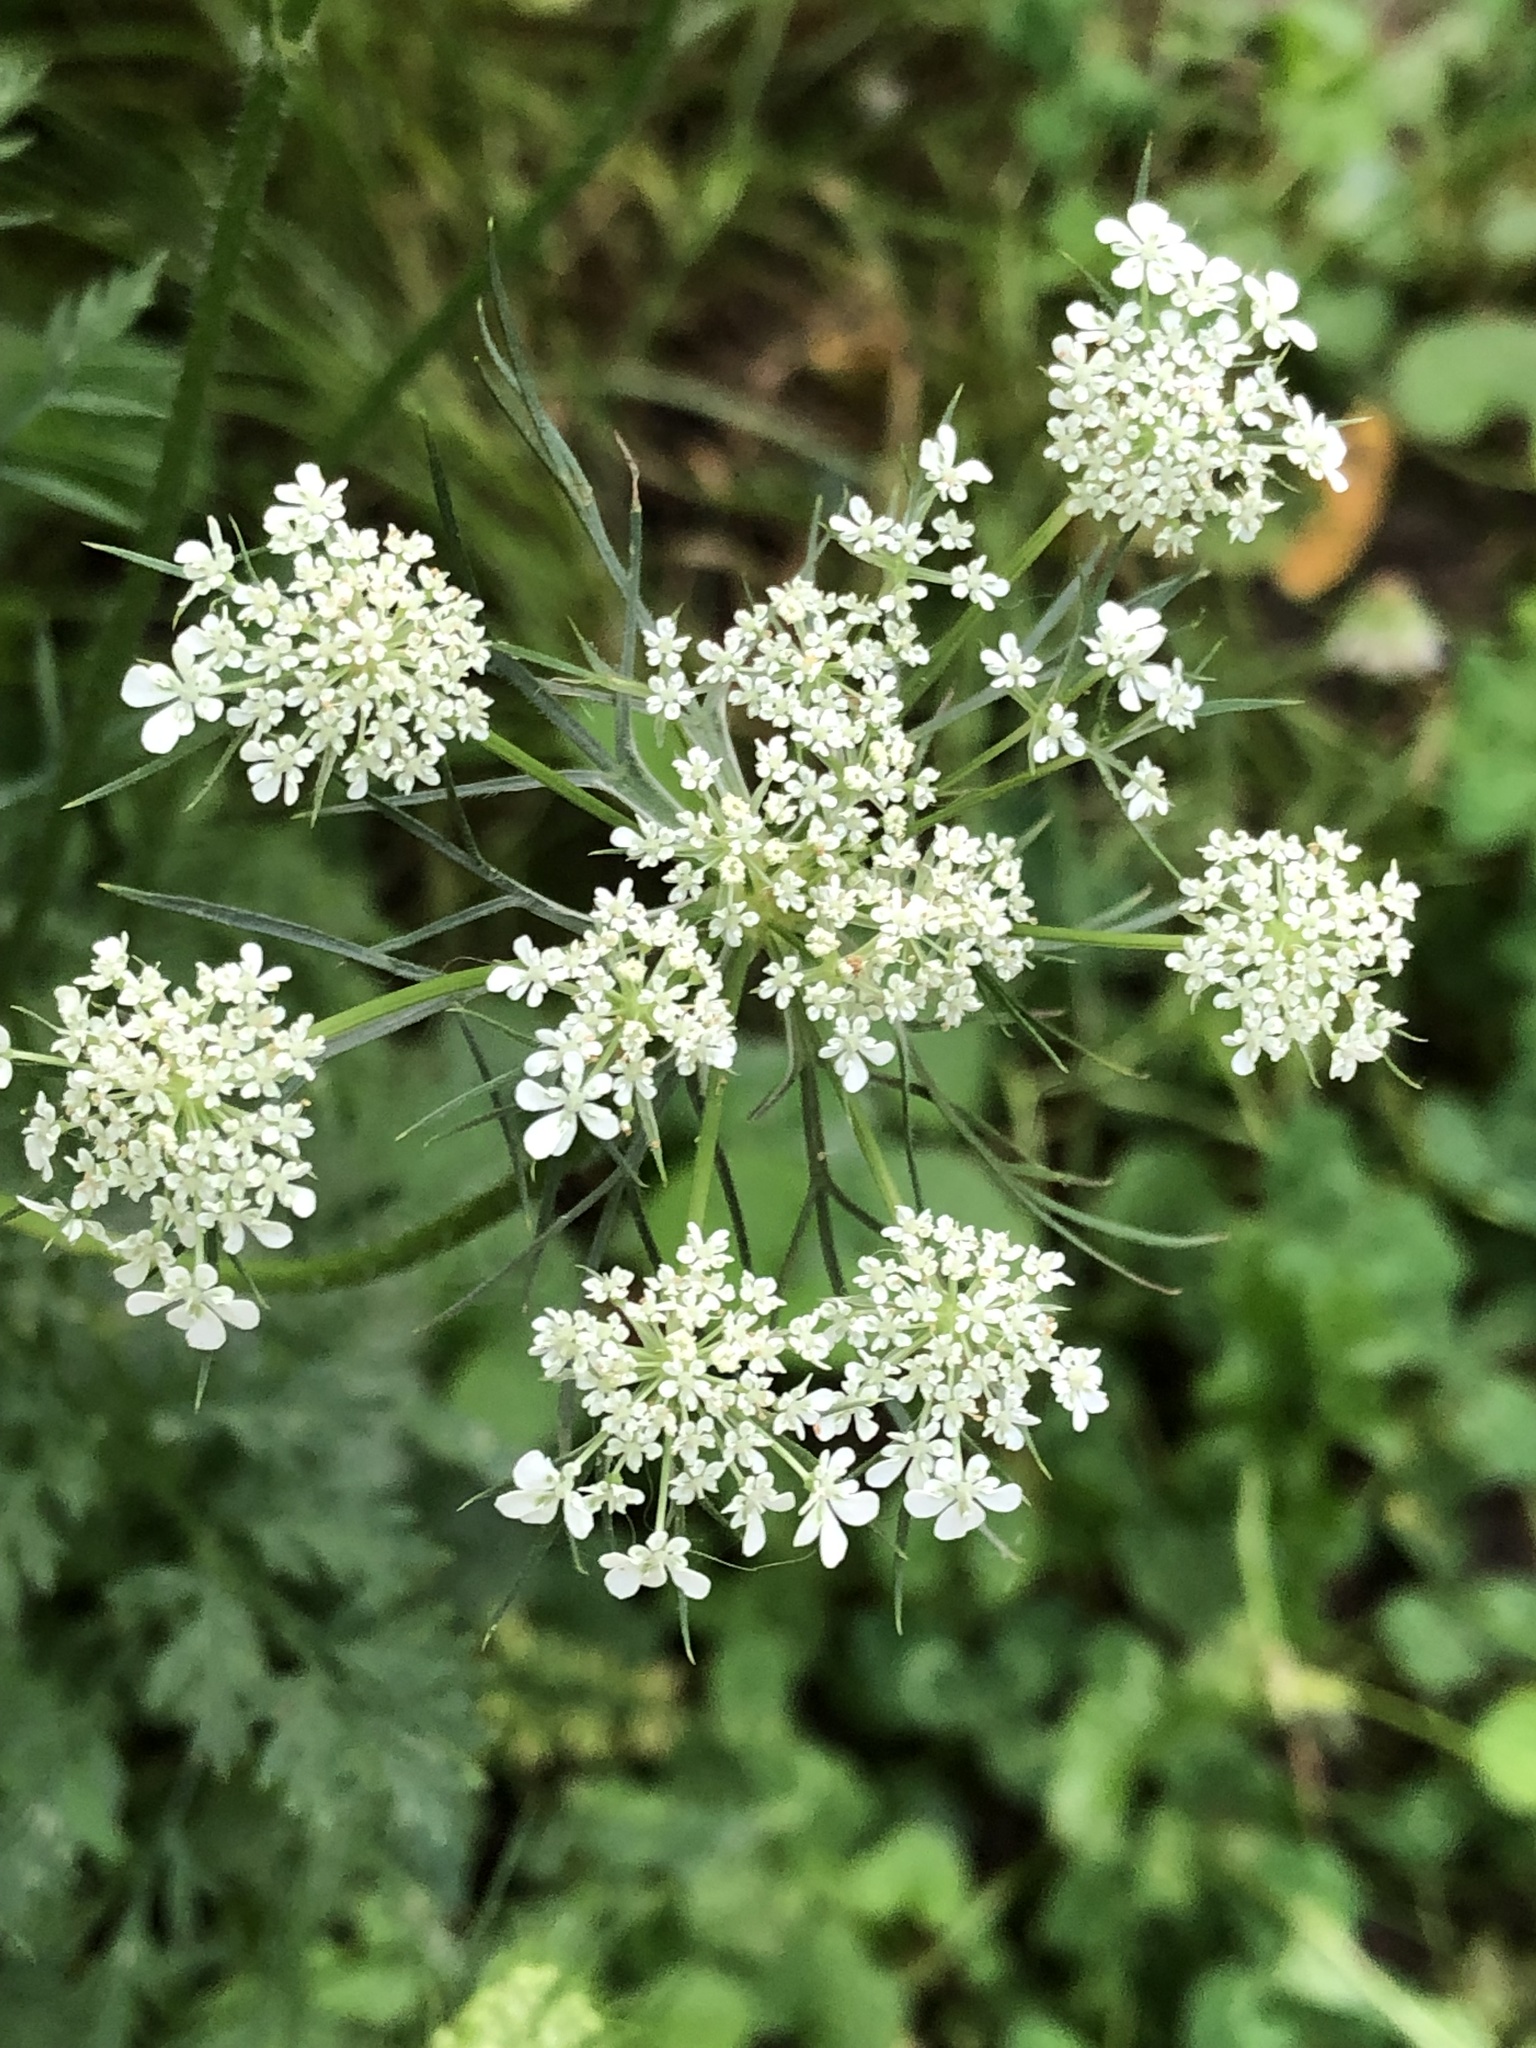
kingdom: Plantae
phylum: Tracheophyta
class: Magnoliopsida
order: Apiales
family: Apiaceae
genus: Daucus
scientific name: Daucus carota
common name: Wild carrot
